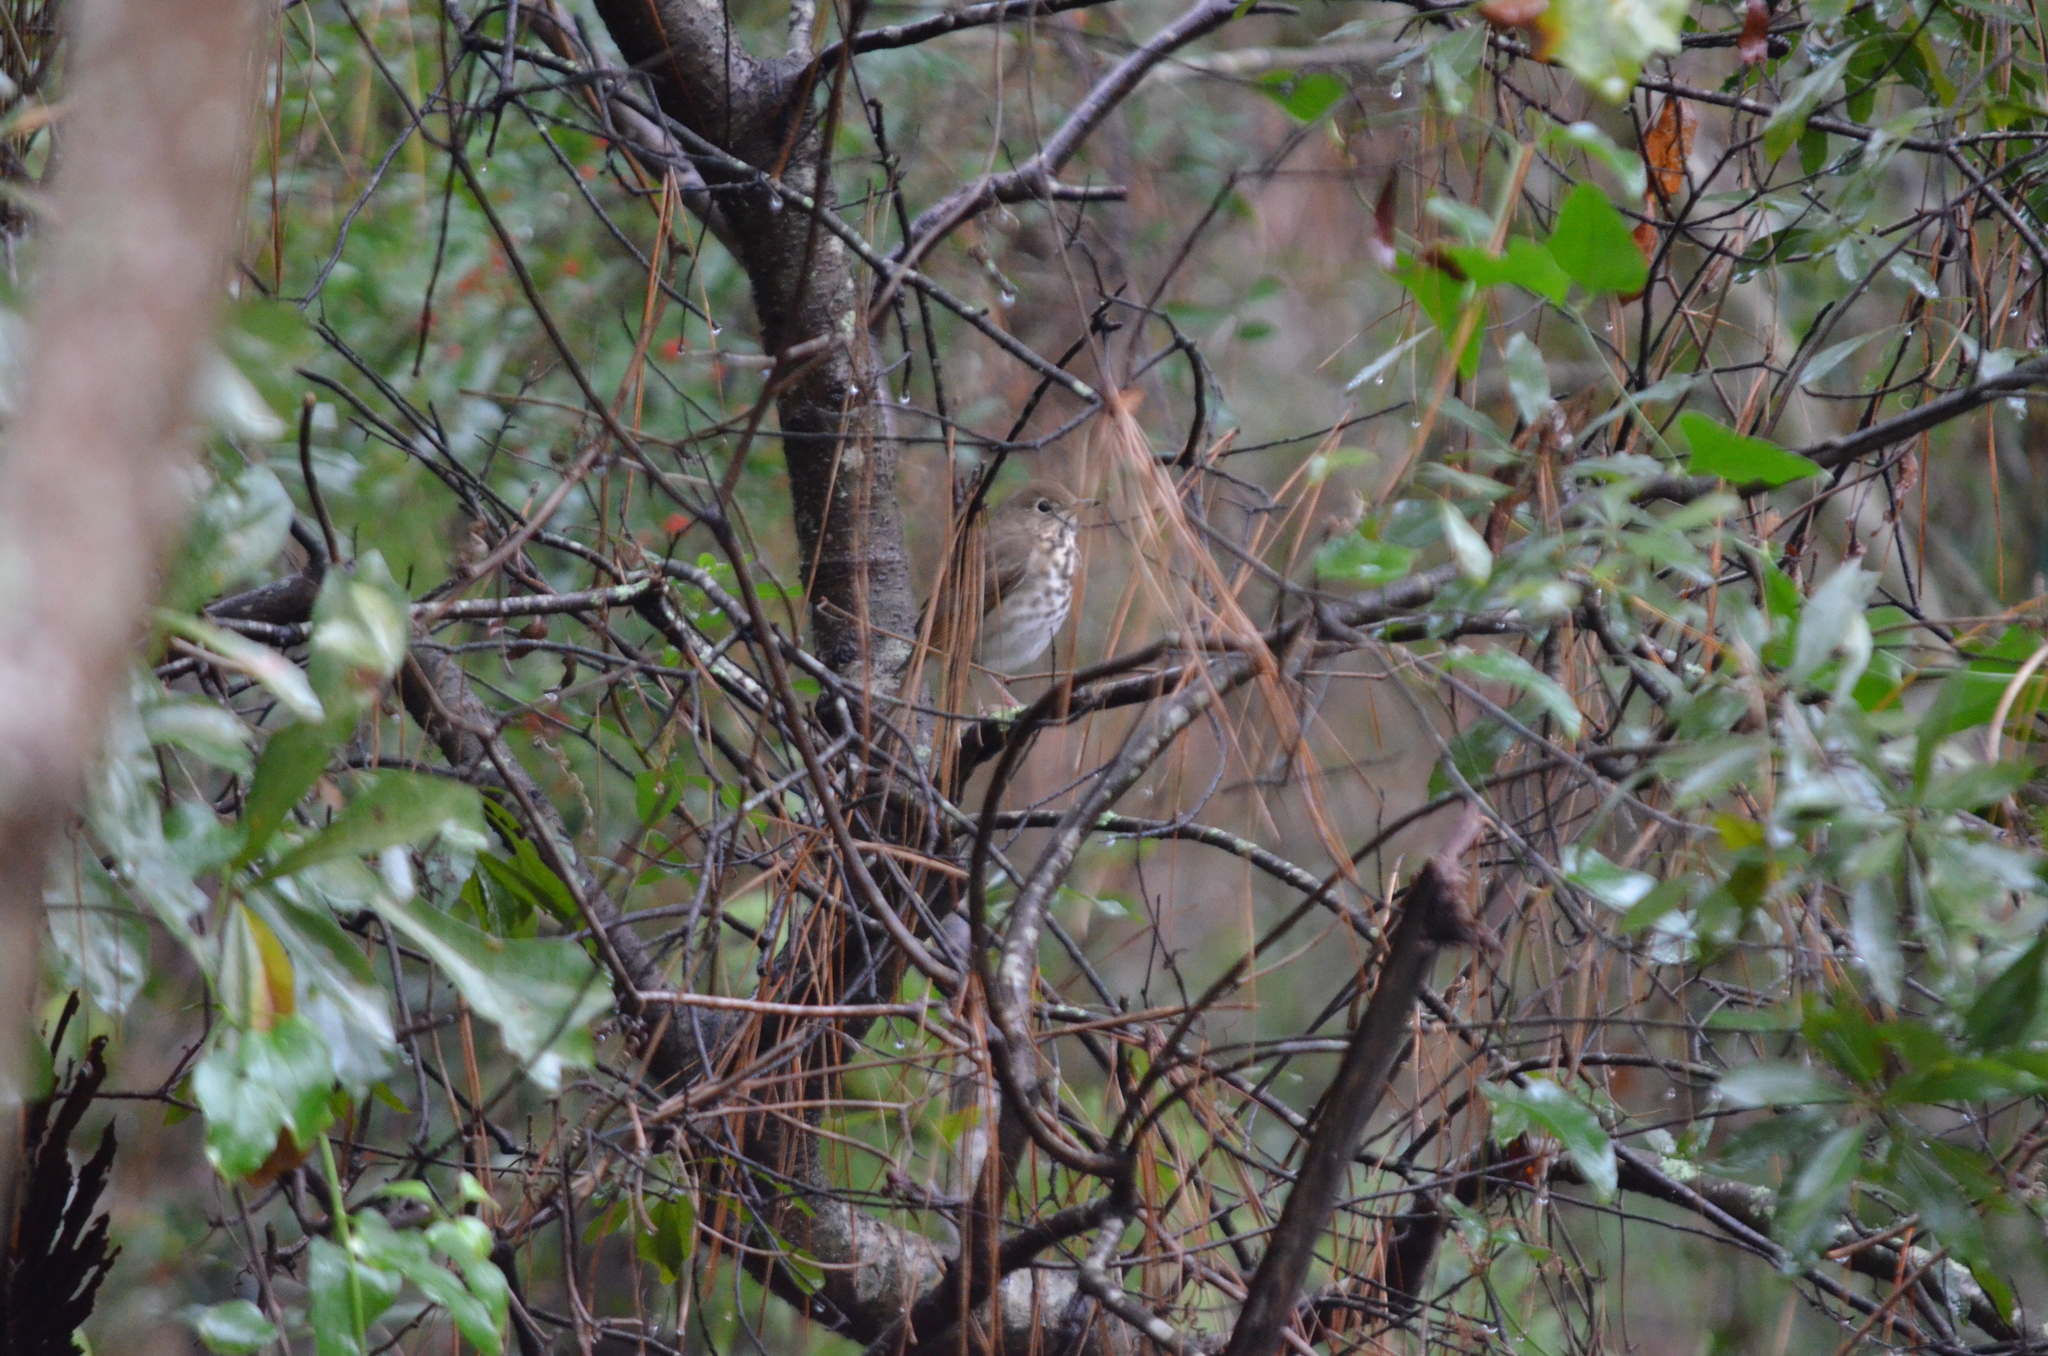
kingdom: Animalia
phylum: Chordata
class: Aves
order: Passeriformes
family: Turdidae
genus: Catharus
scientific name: Catharus guttatus
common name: Hermit thrush
